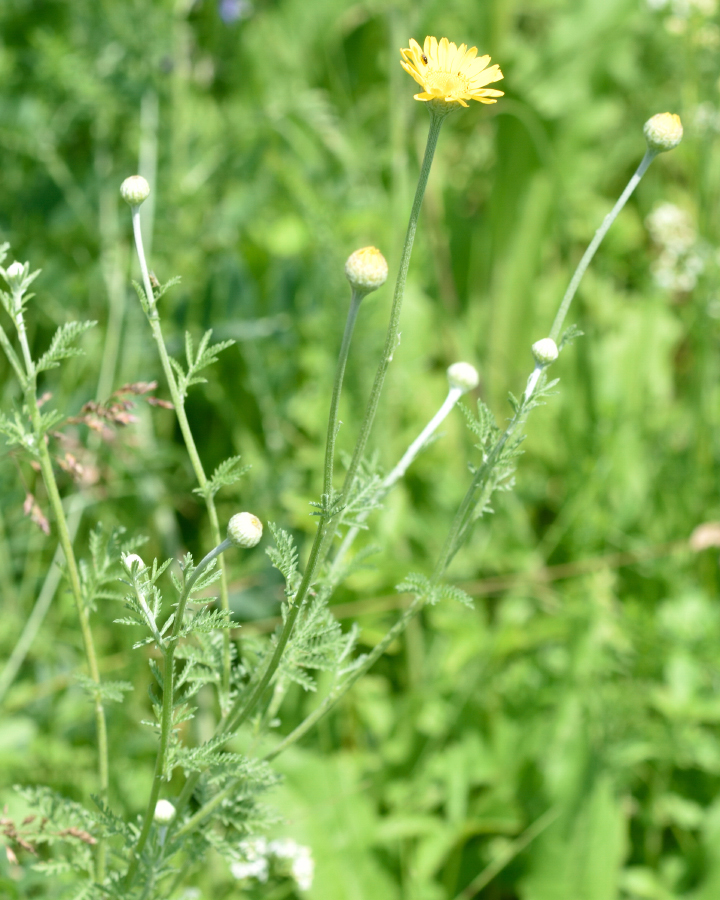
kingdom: Plantae
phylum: Tracheophyta
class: Magnoliopsida
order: Asterales
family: Asteraceae
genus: Cota
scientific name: Cota tinctoria
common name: Golden chamomile
